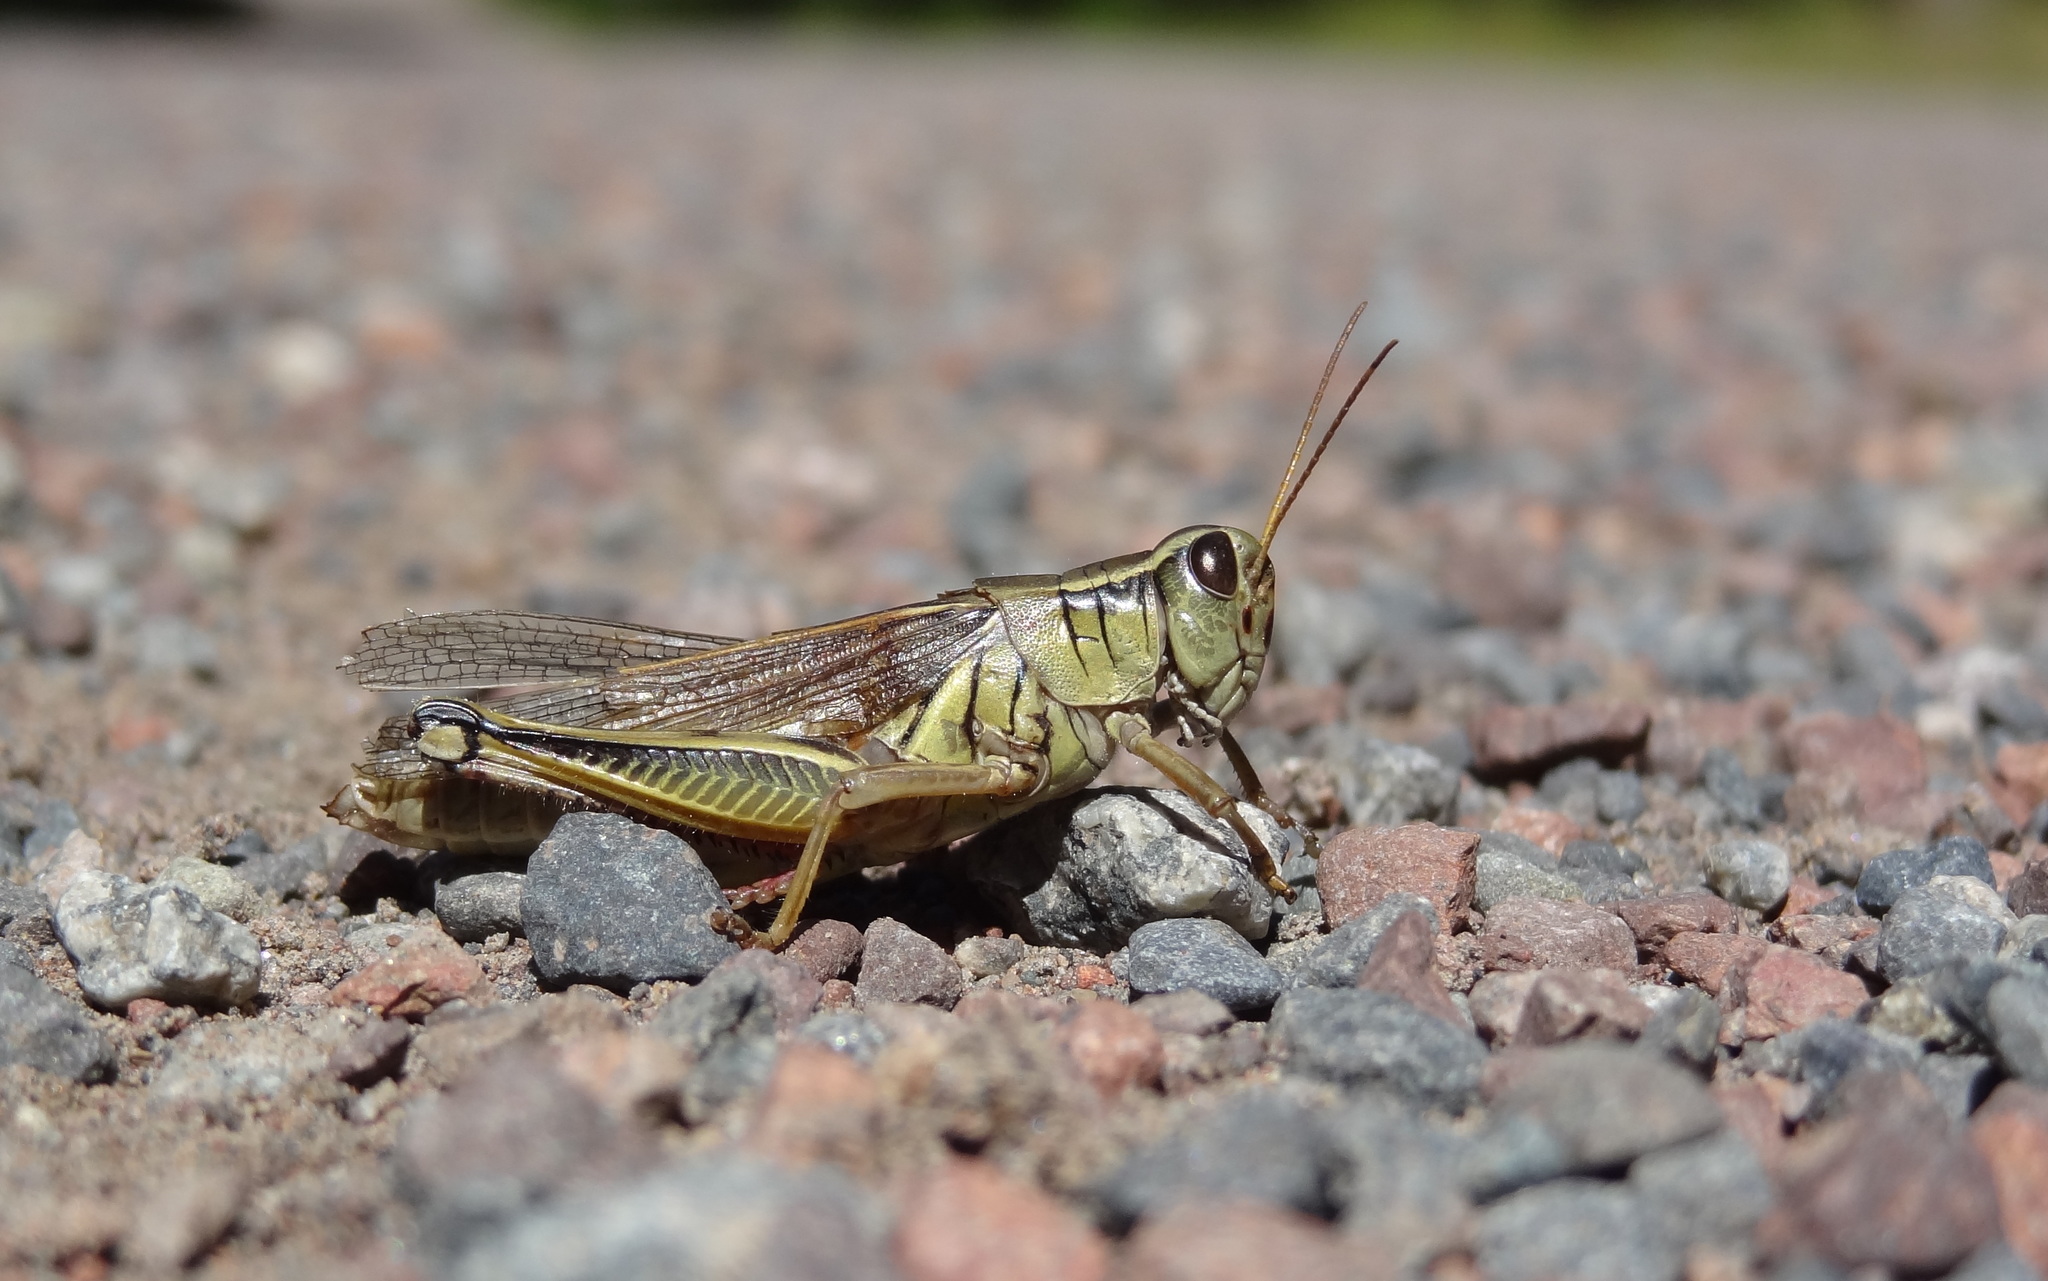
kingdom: Animalia
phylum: Arthropoda
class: Insecta
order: Orthoptera
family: Acrididae
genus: Melanoplus
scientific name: Melanoplus bivittatus
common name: Two-striped grasshopper
